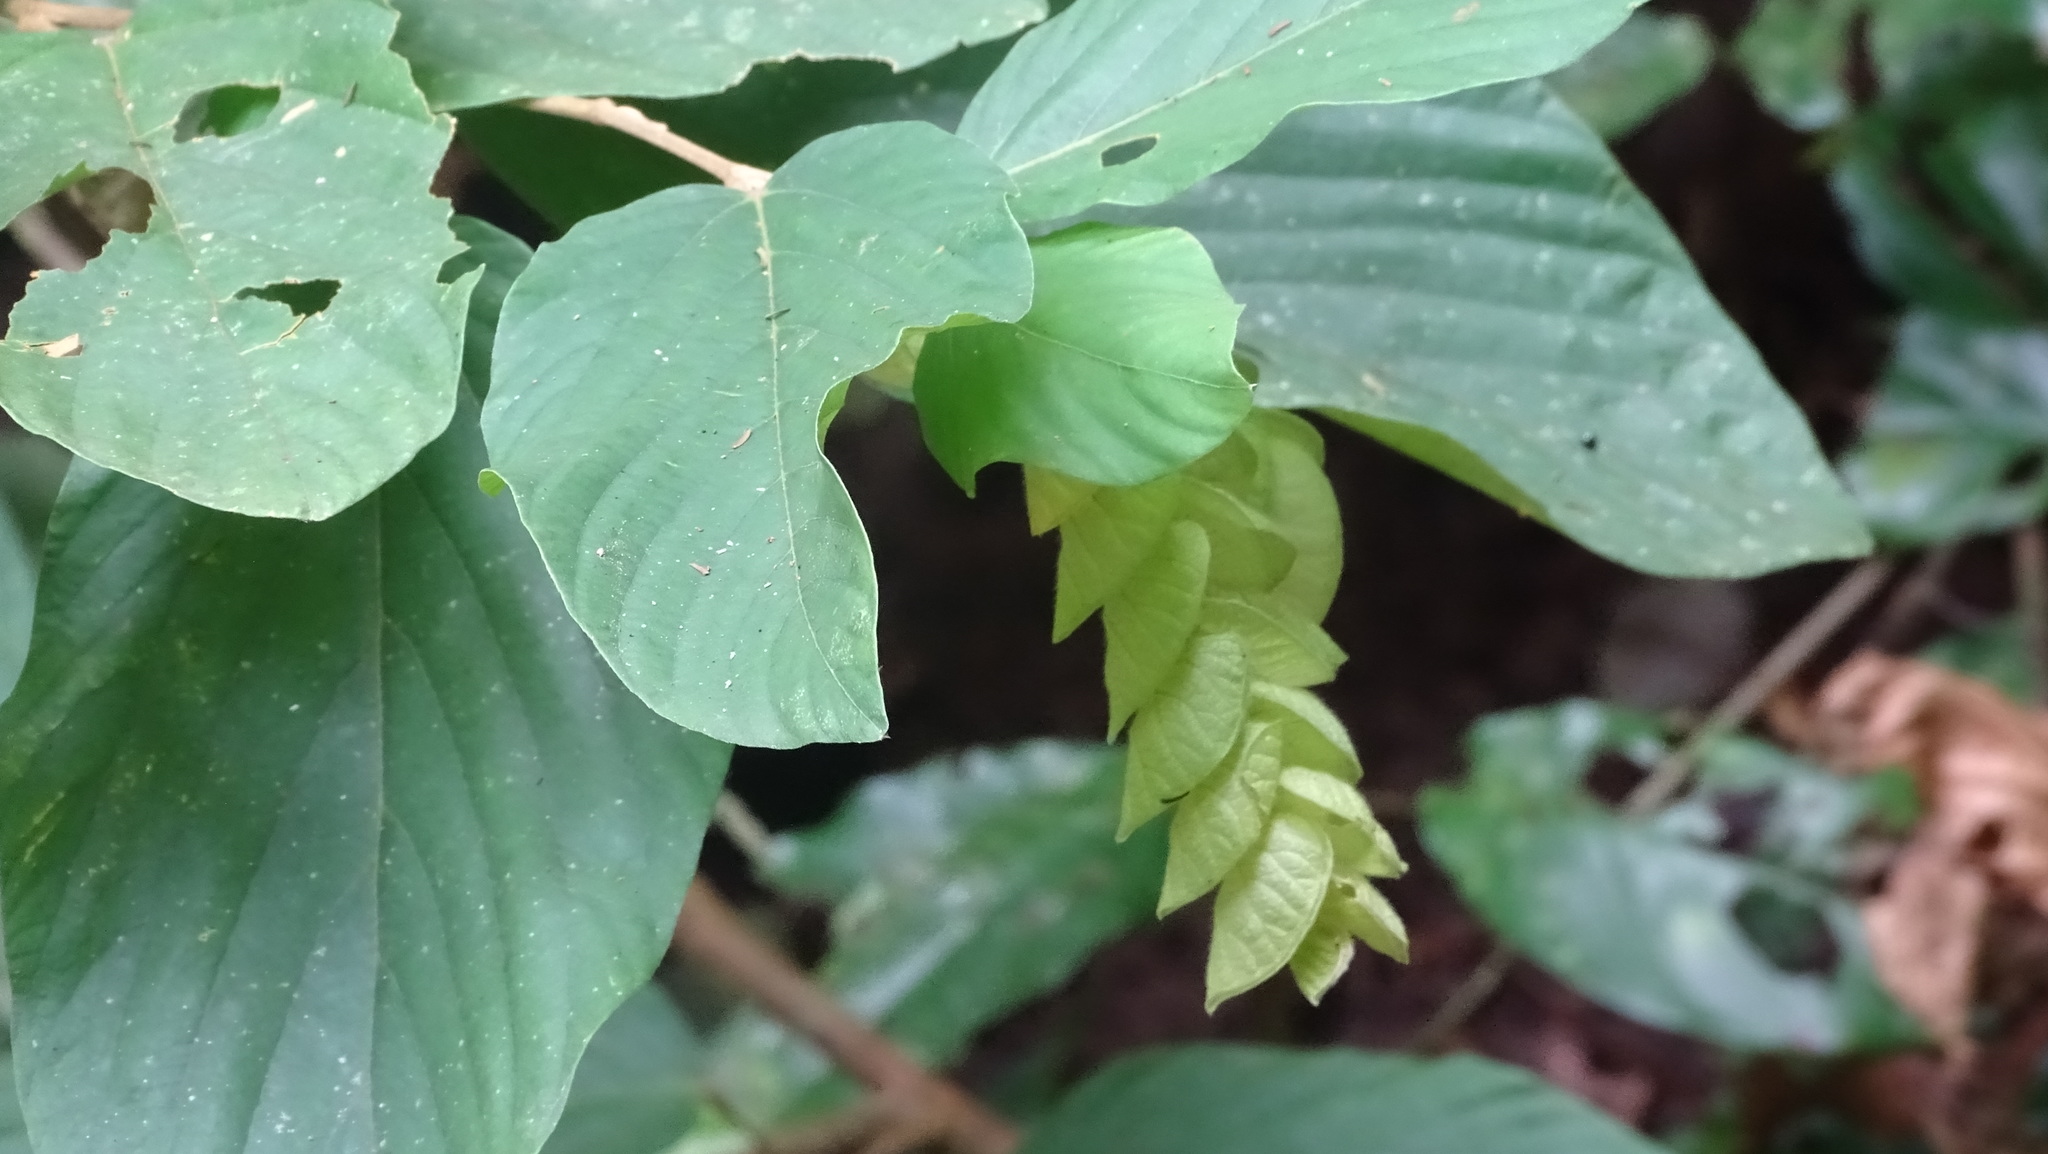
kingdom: Plantae
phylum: Tracheophyta
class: Magnoliopsida
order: Fabales
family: Fabaceae
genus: Flemingia
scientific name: Flemingia strobilifera
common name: Wild hops
